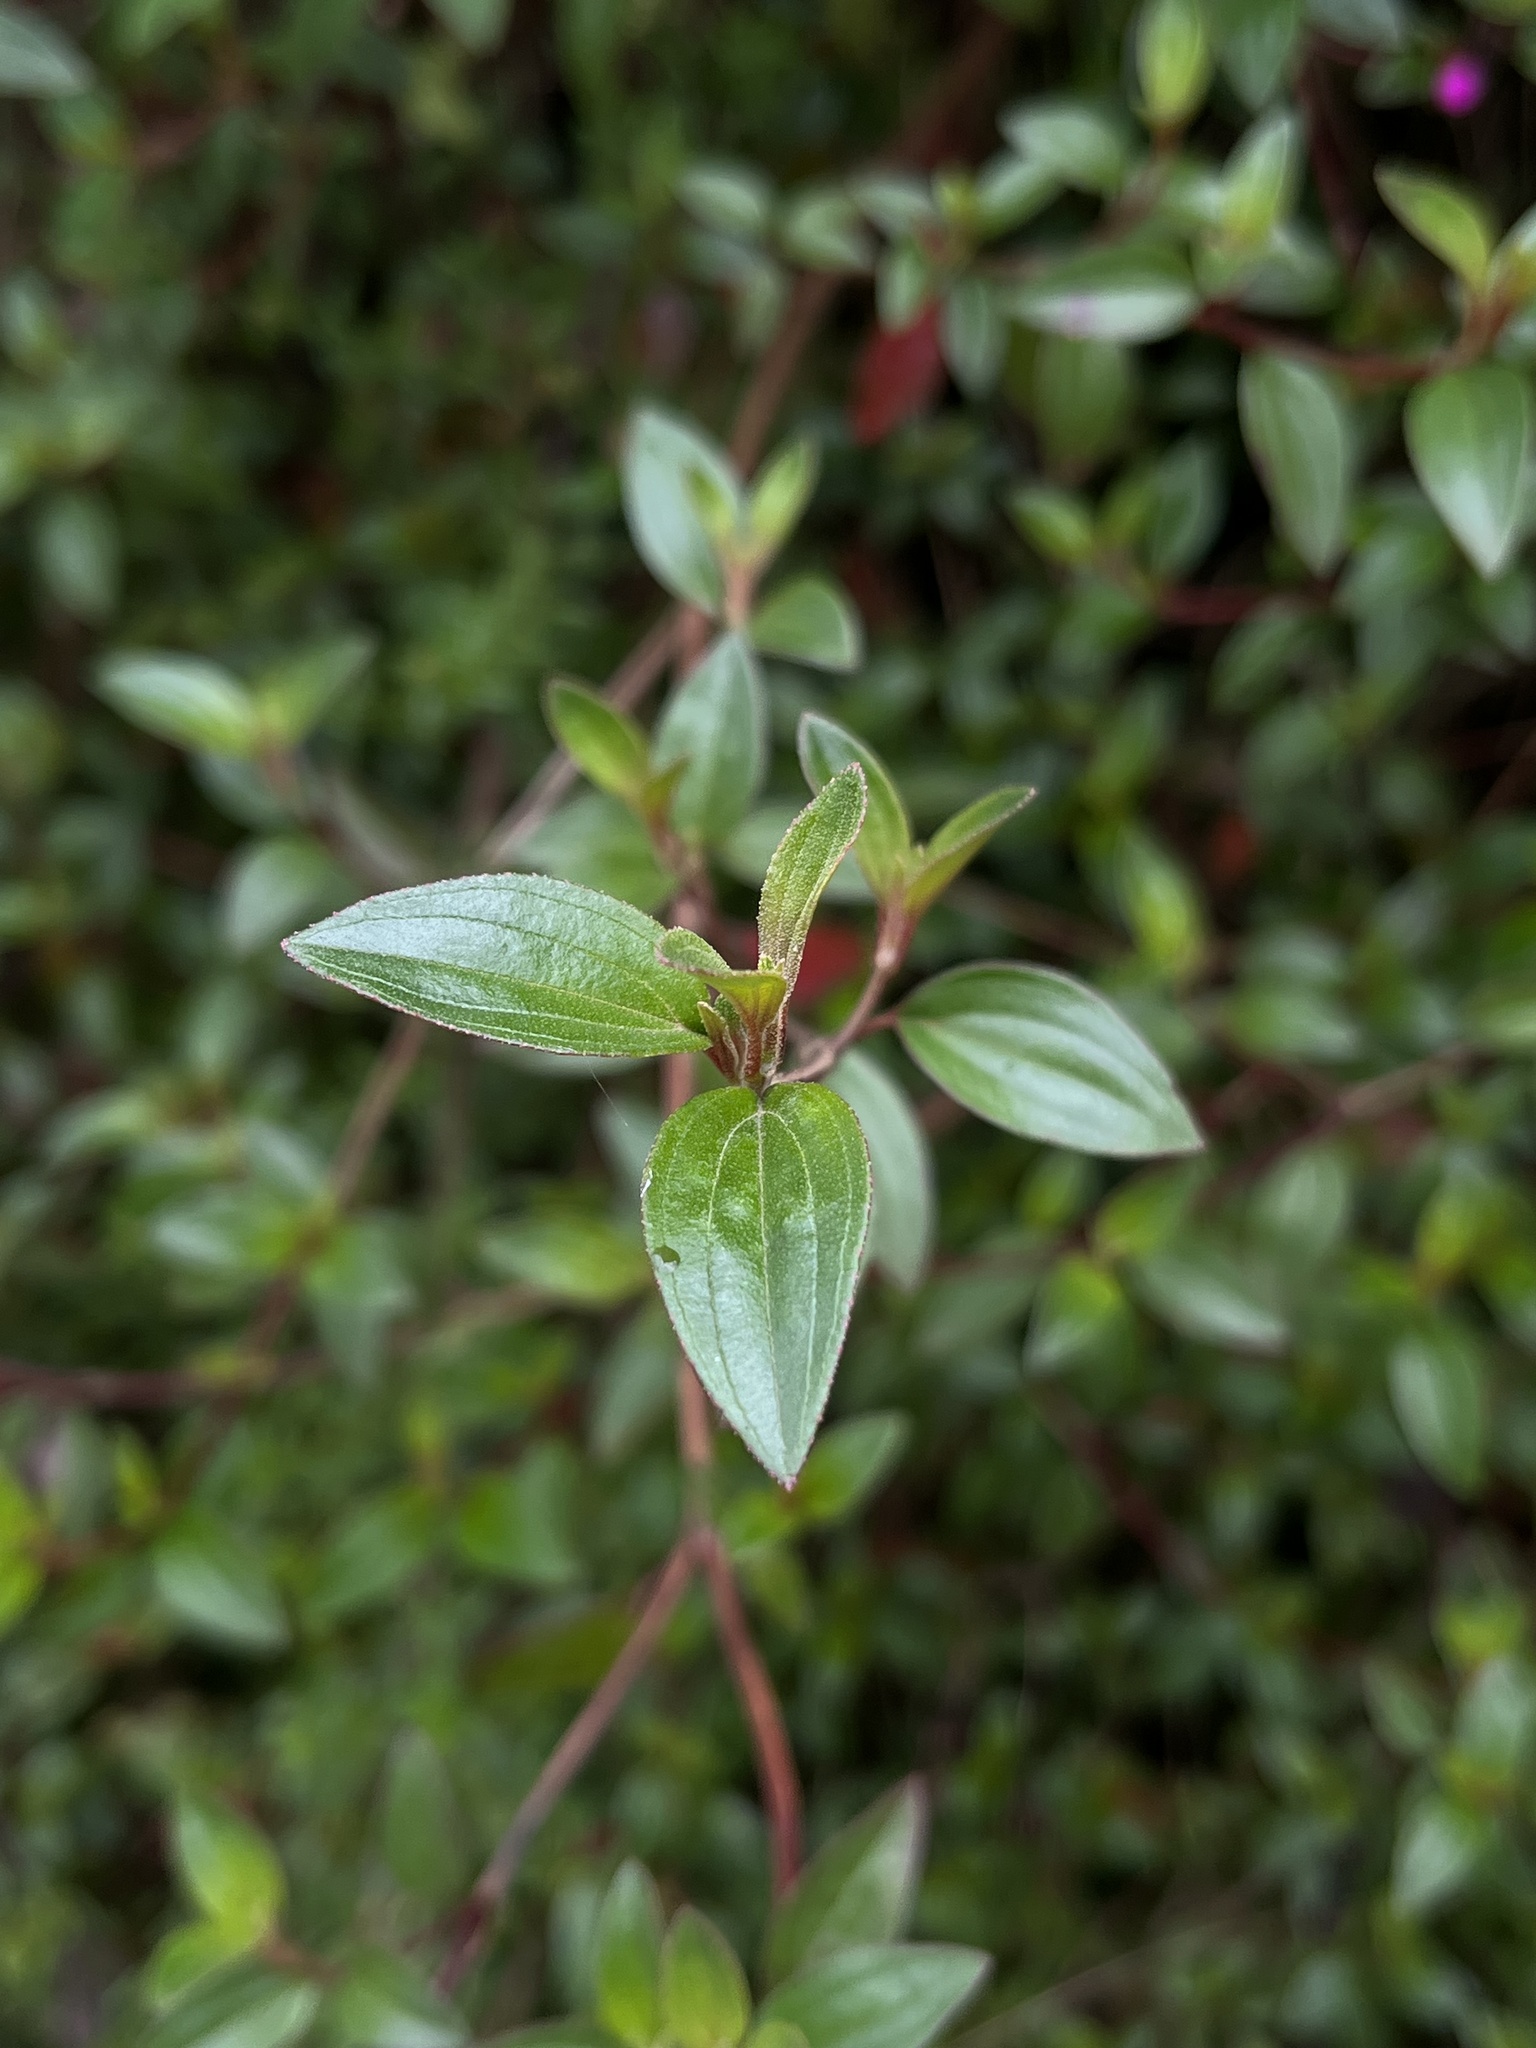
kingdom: Plantae
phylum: Tracheophyta
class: Magnoliopsida
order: Myrtales
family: Melastomataceae
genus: Monochaetum
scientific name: Monochaetum myrtoideum
